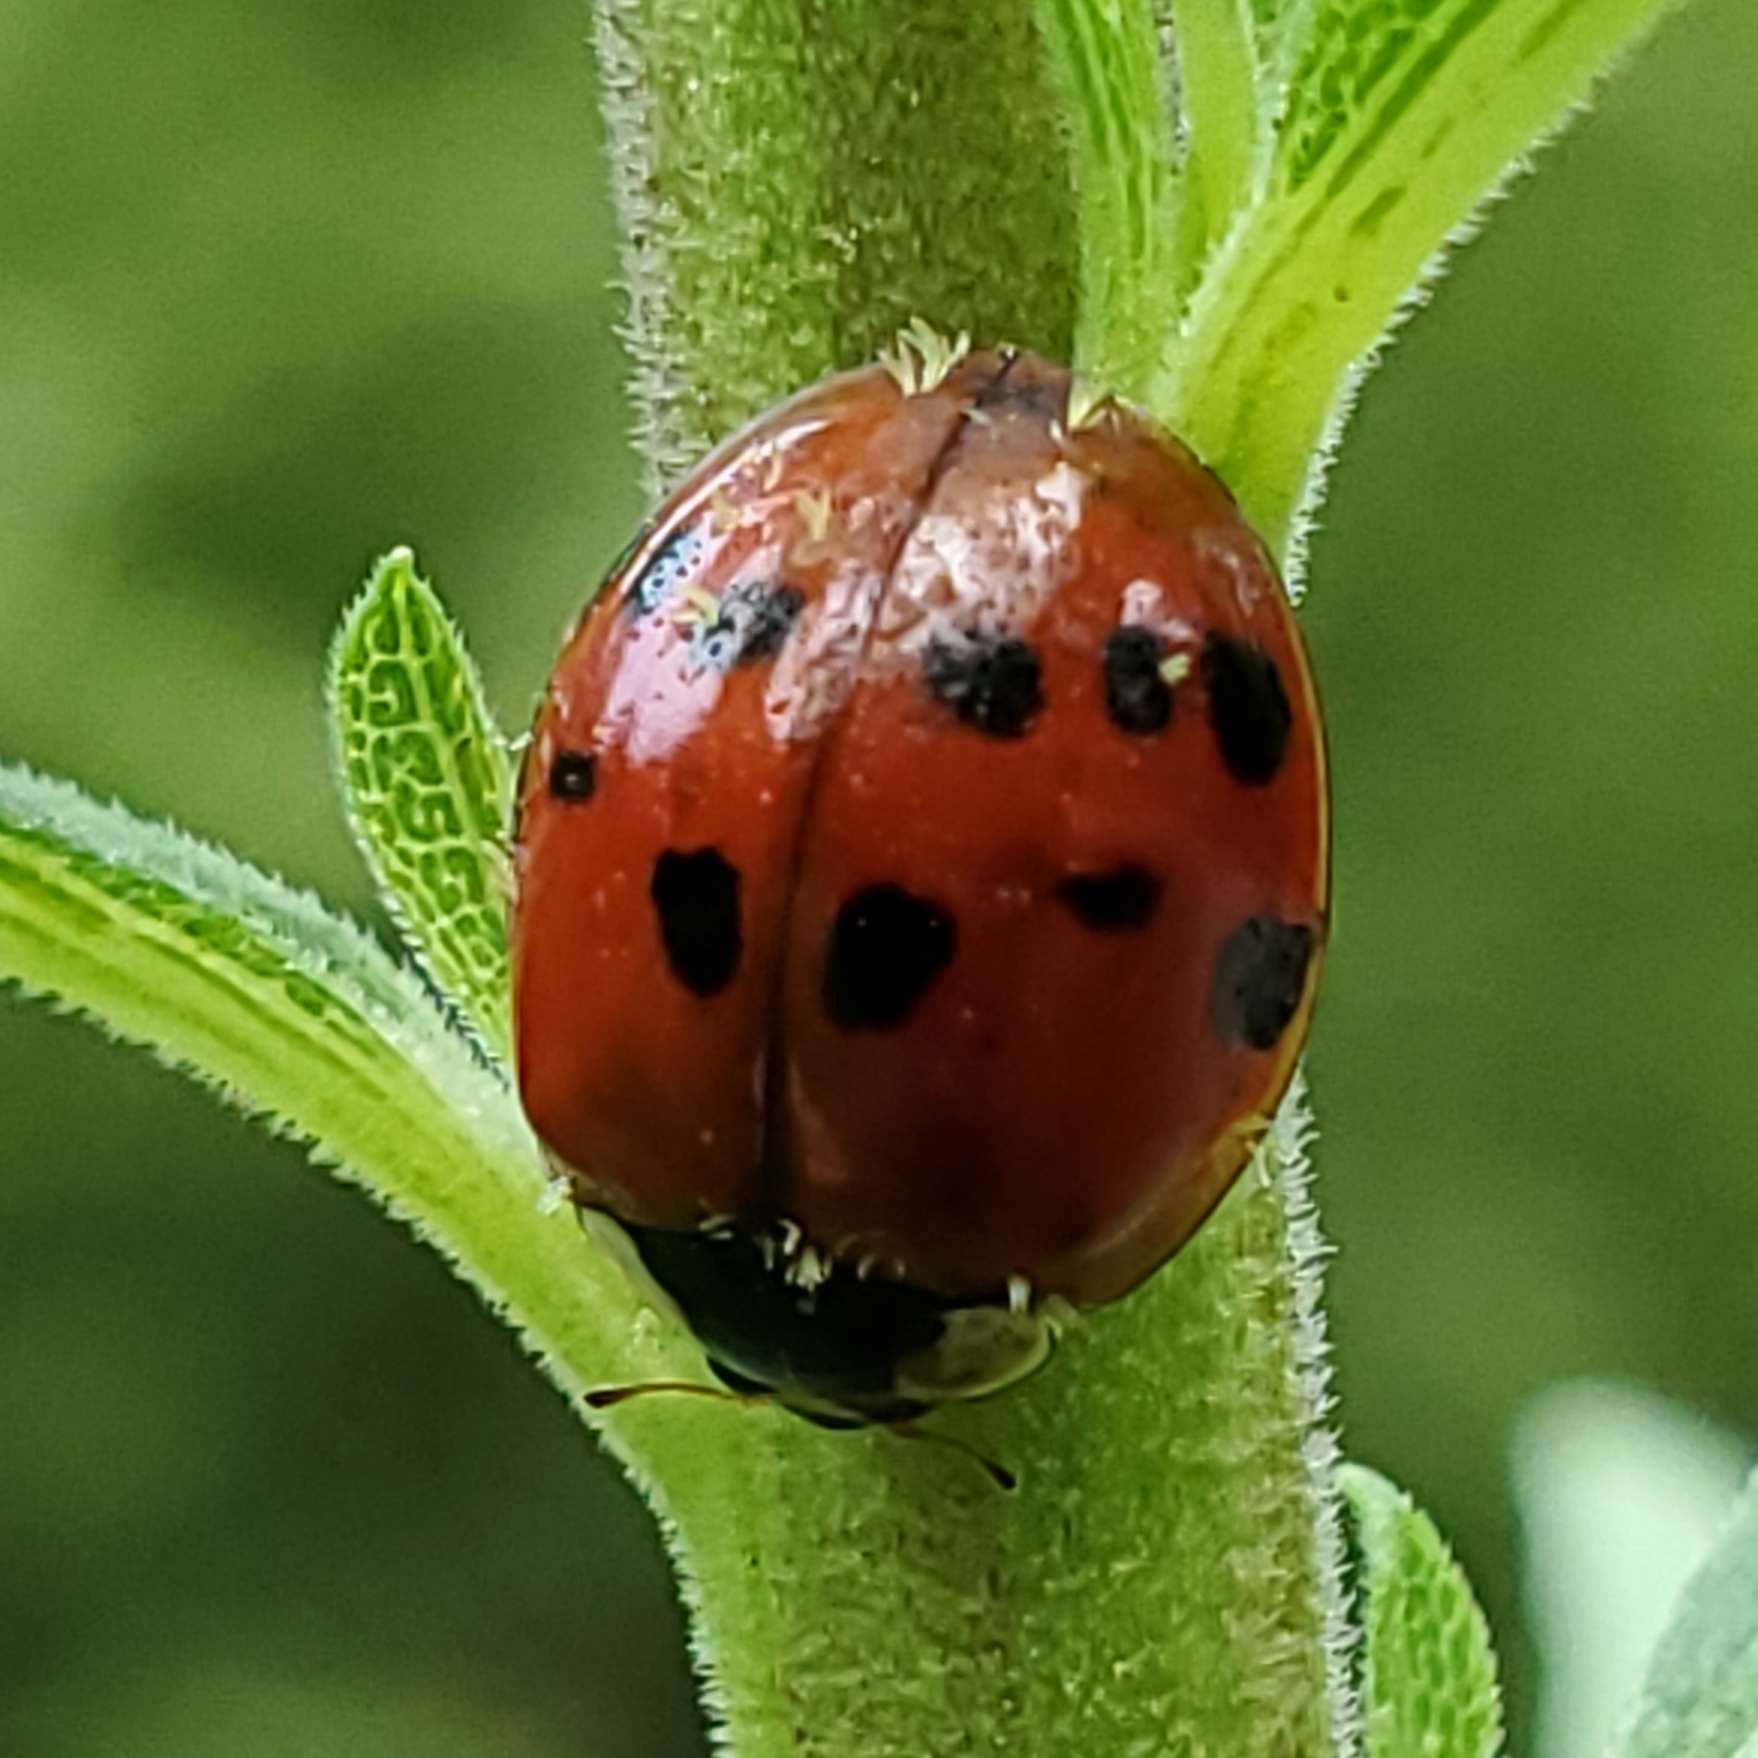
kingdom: Animalia
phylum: Arthropoda
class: Insecta
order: Coleoptera
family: Coccinellidae
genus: Harmonia
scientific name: Harmonia axyridis
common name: Harlequin ladybird
